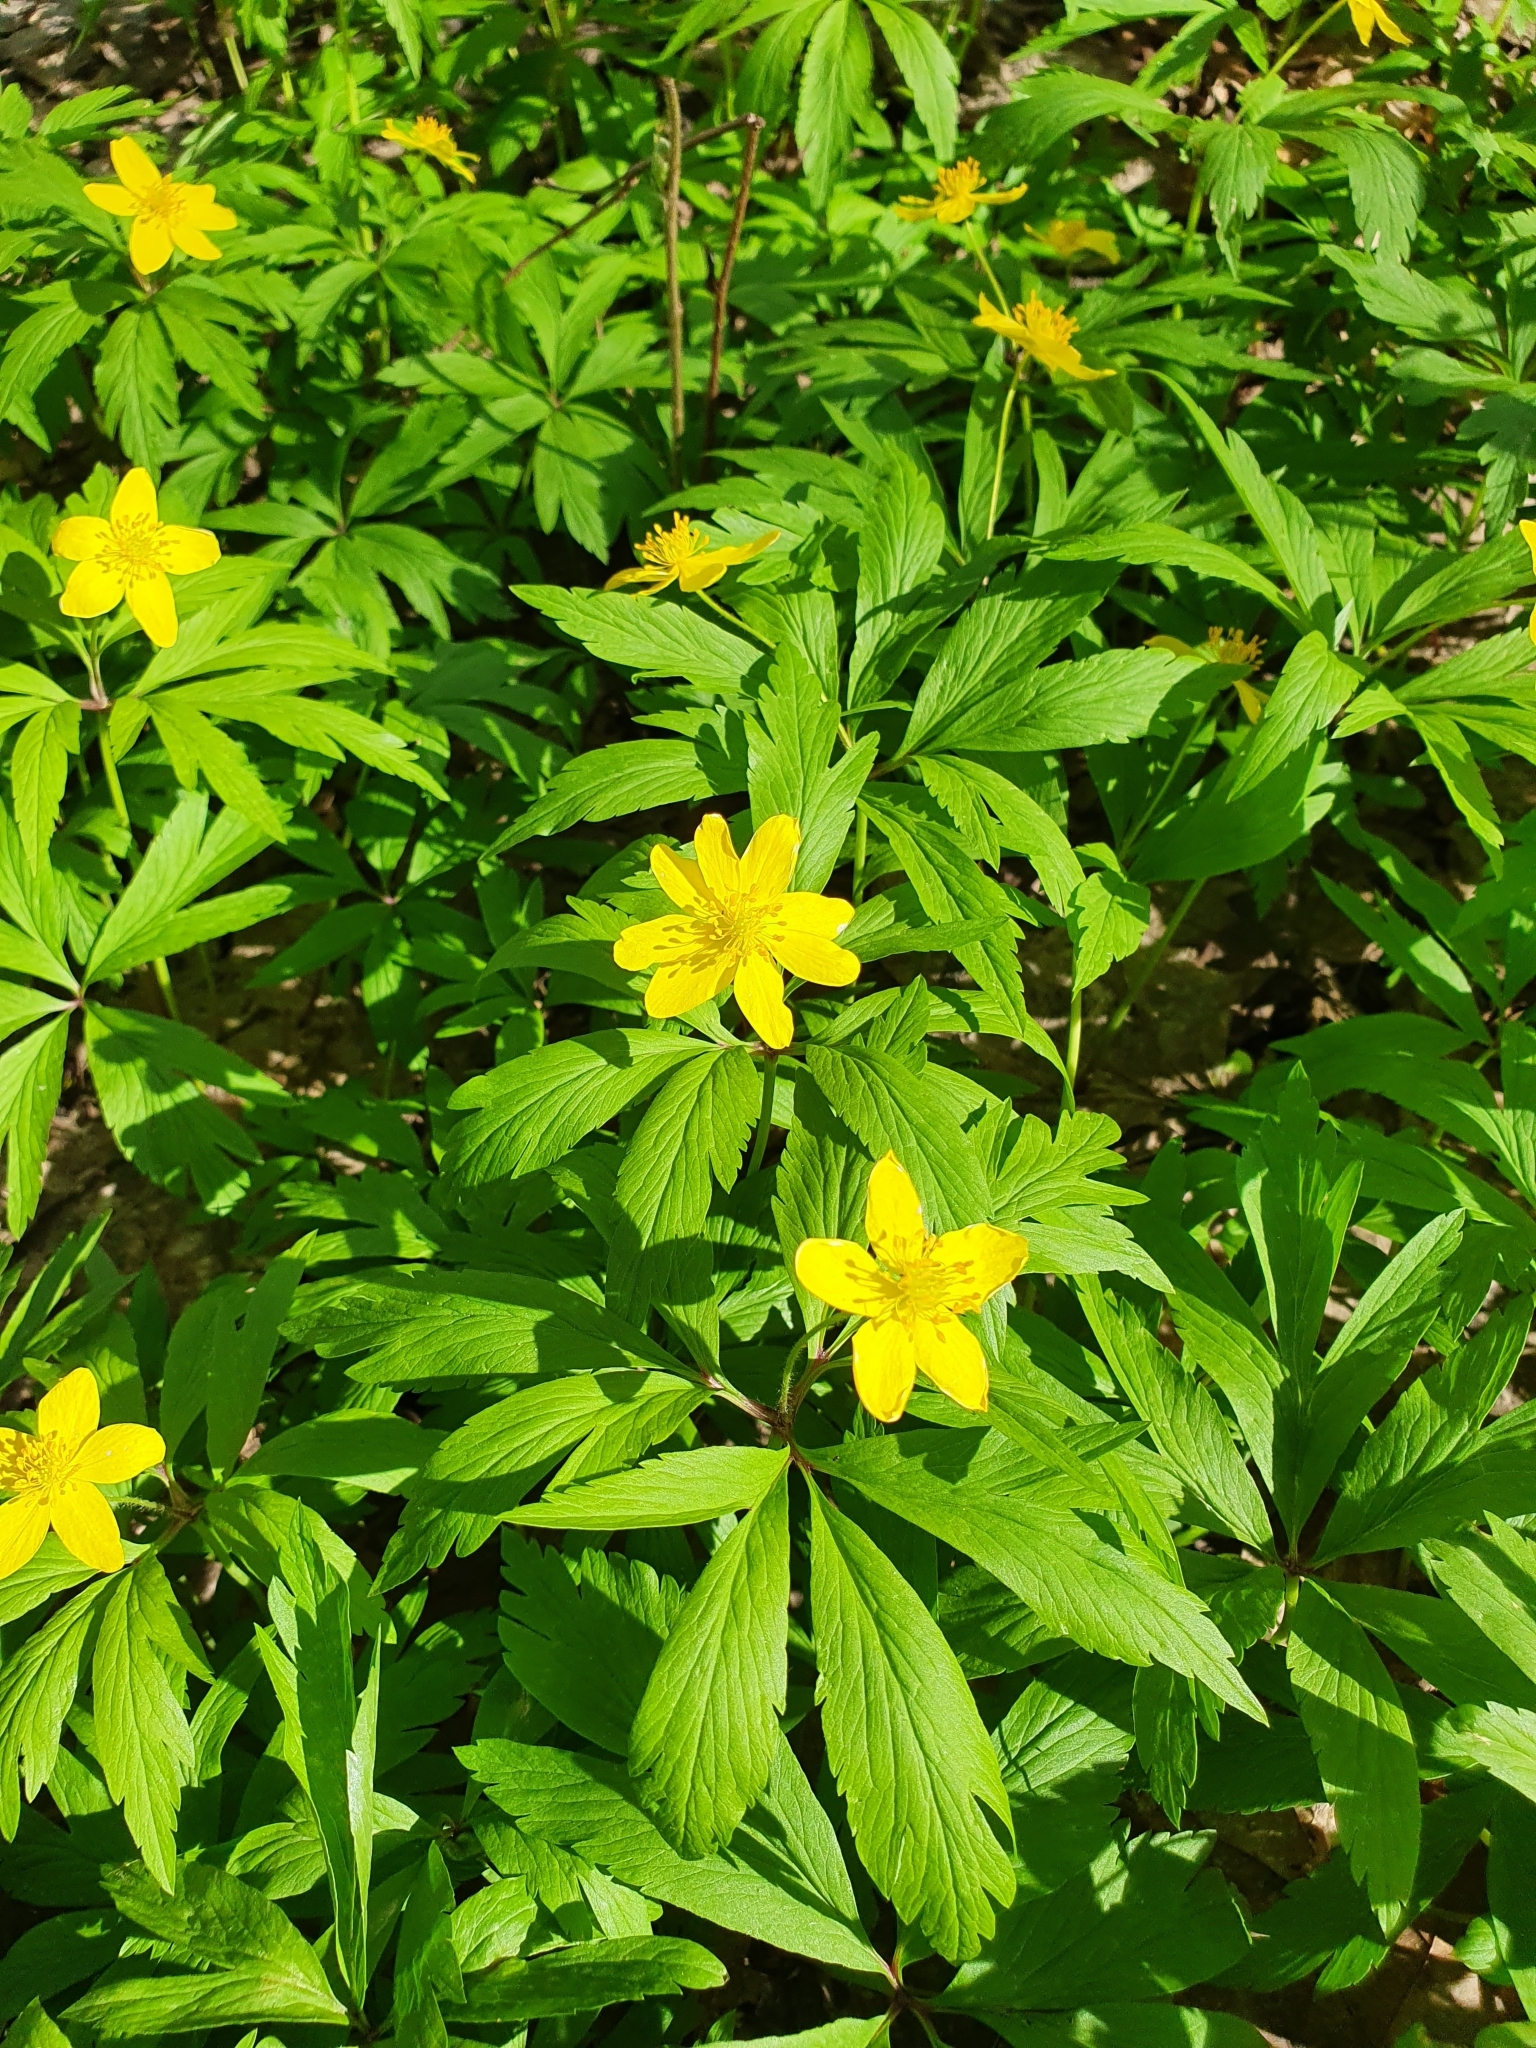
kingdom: Plantae
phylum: Tracheophyta
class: Magnoliopsida
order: Ranunculales
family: Ranunculaceae
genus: Anemone
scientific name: Anemone ranunculoides
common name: Yellow anemone
